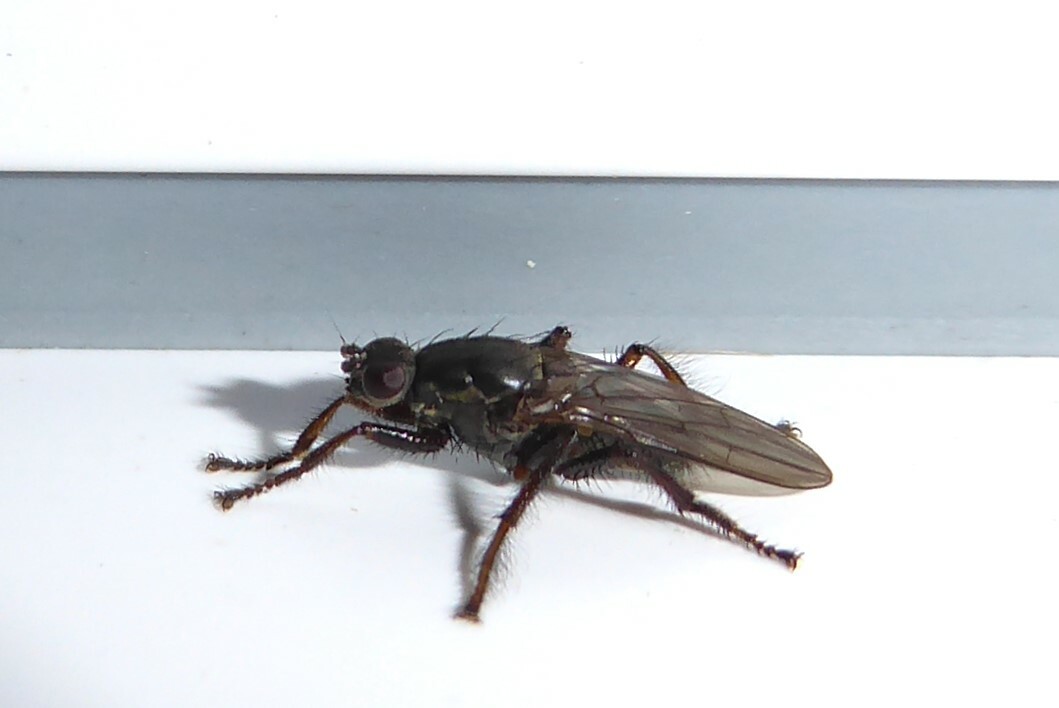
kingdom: Animalia
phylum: Arthropoda
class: Insecta
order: Diptera
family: Coelopidae
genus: Chaetocoelopa
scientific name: Chaetocoelopa littoralis
